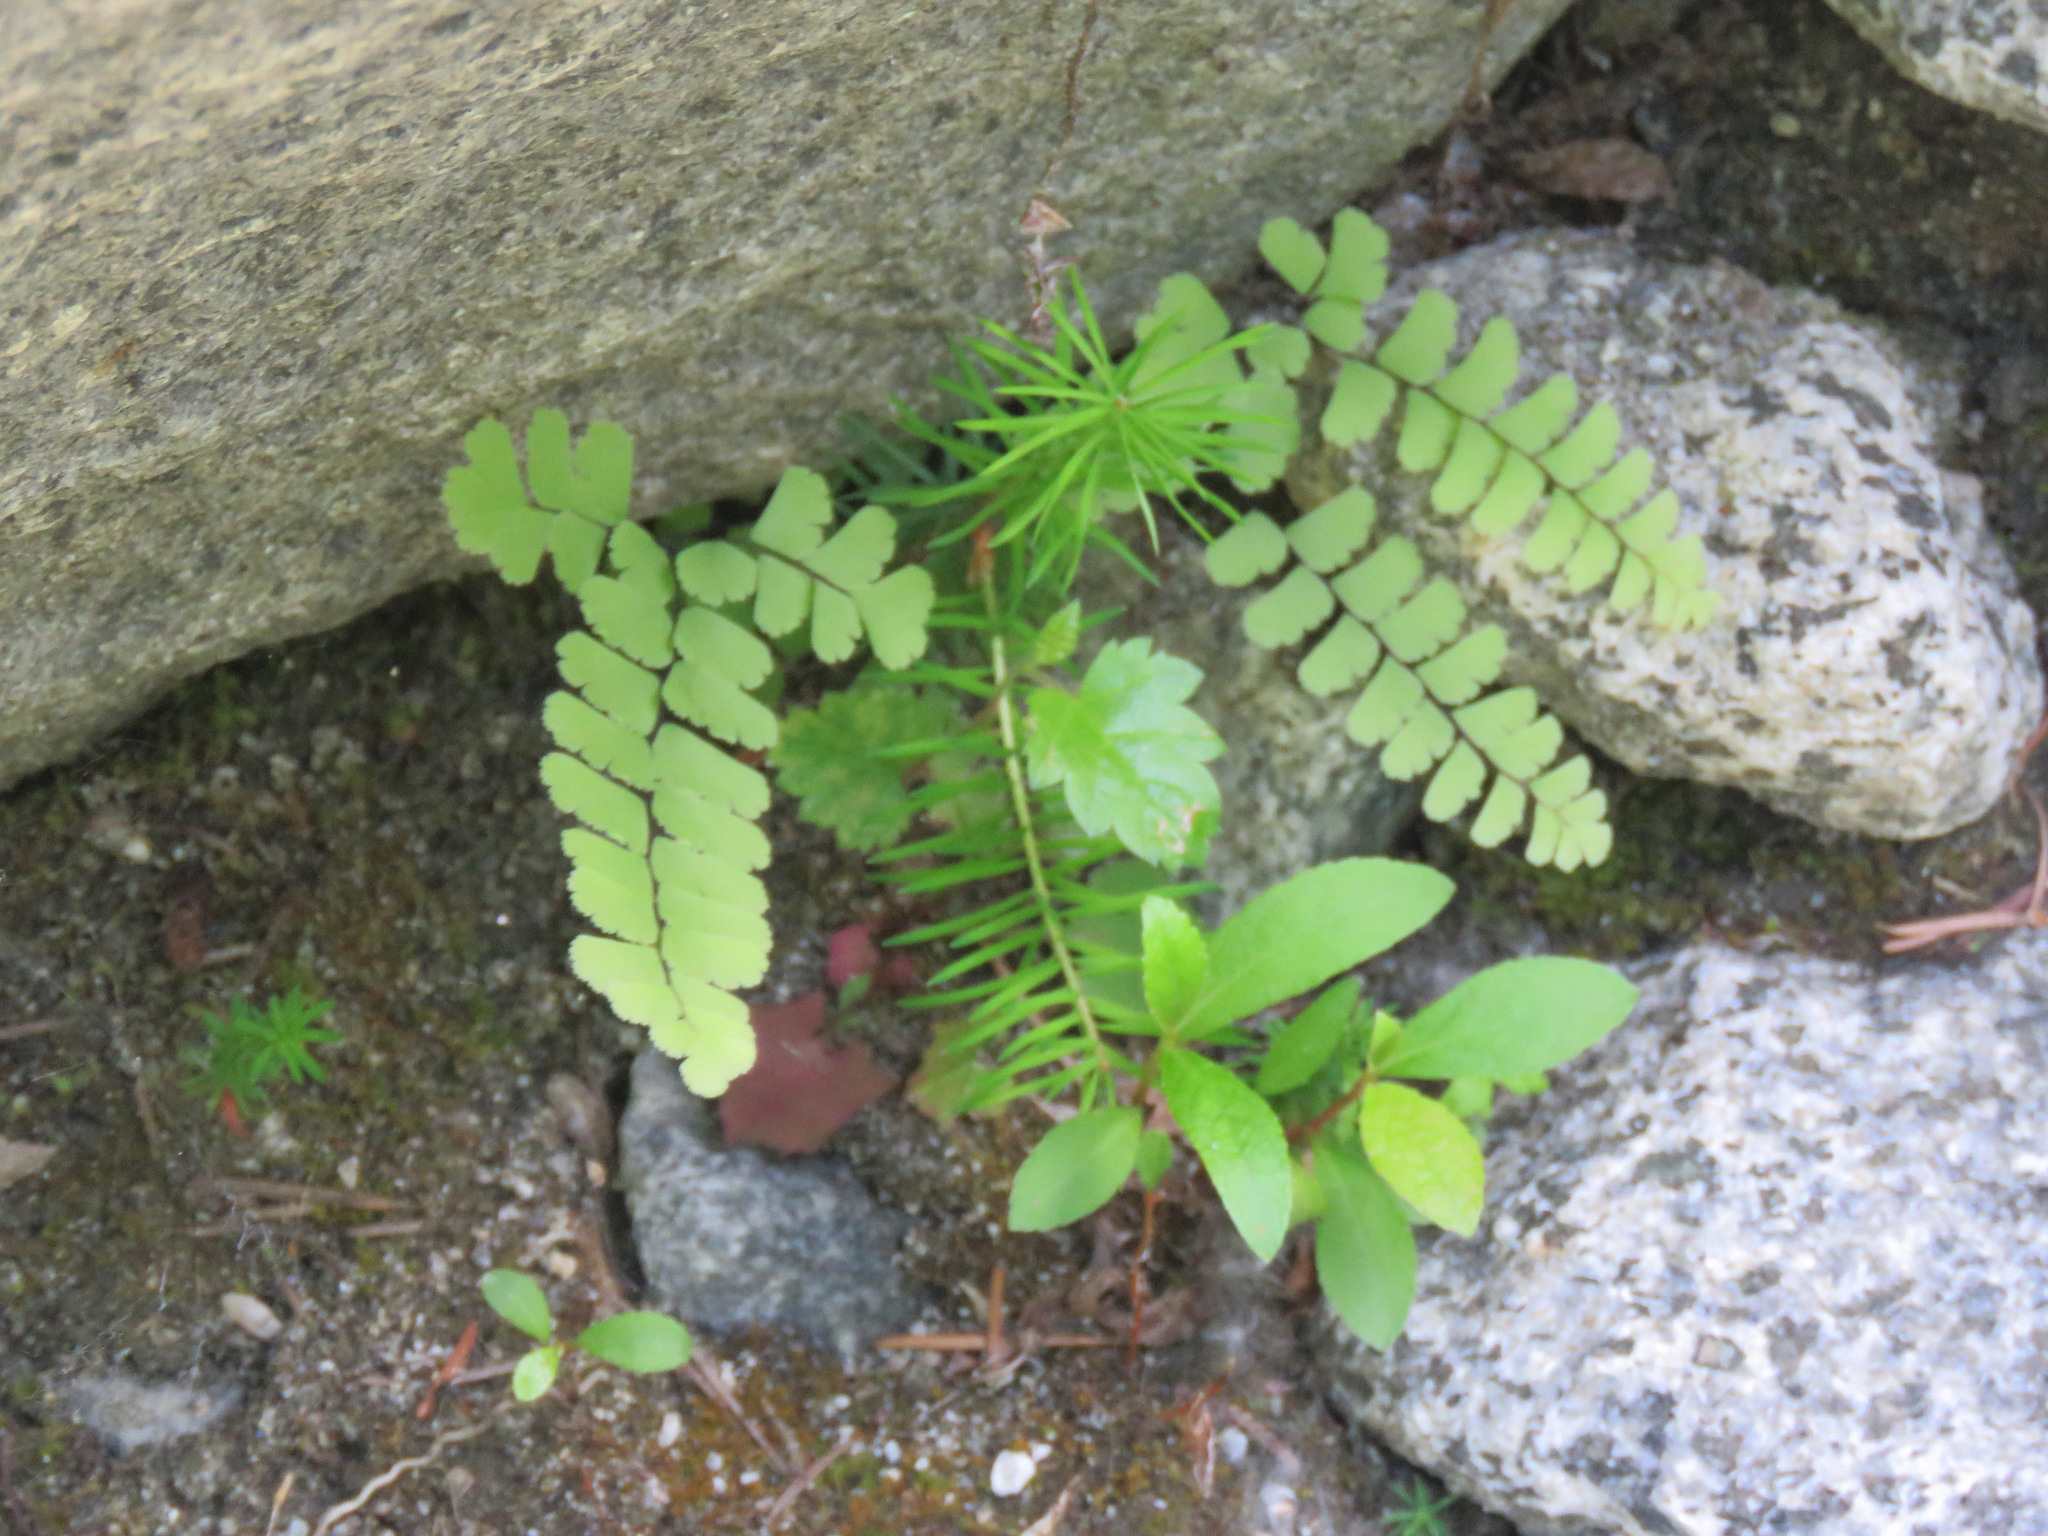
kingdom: Plantae
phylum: Tracheophyta
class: Polypodiopsida
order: Polypodiales
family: Pteridaceae
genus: Adiantum
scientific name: Adiantum aleuticum
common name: Aleutian maidenhair fern
